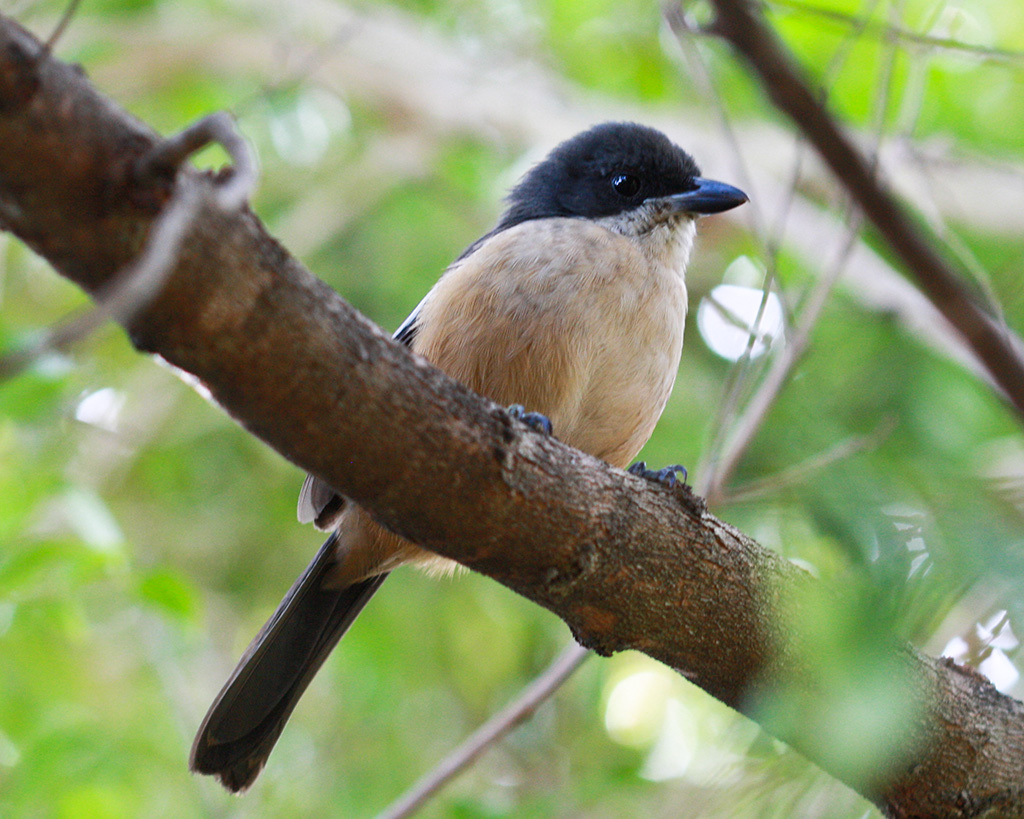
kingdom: Animalia
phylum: Chordata
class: Aves
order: Passeriformes
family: Malaconotidae
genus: Laniarius
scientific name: Laniarius ferrugineus
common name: Southern boubou
